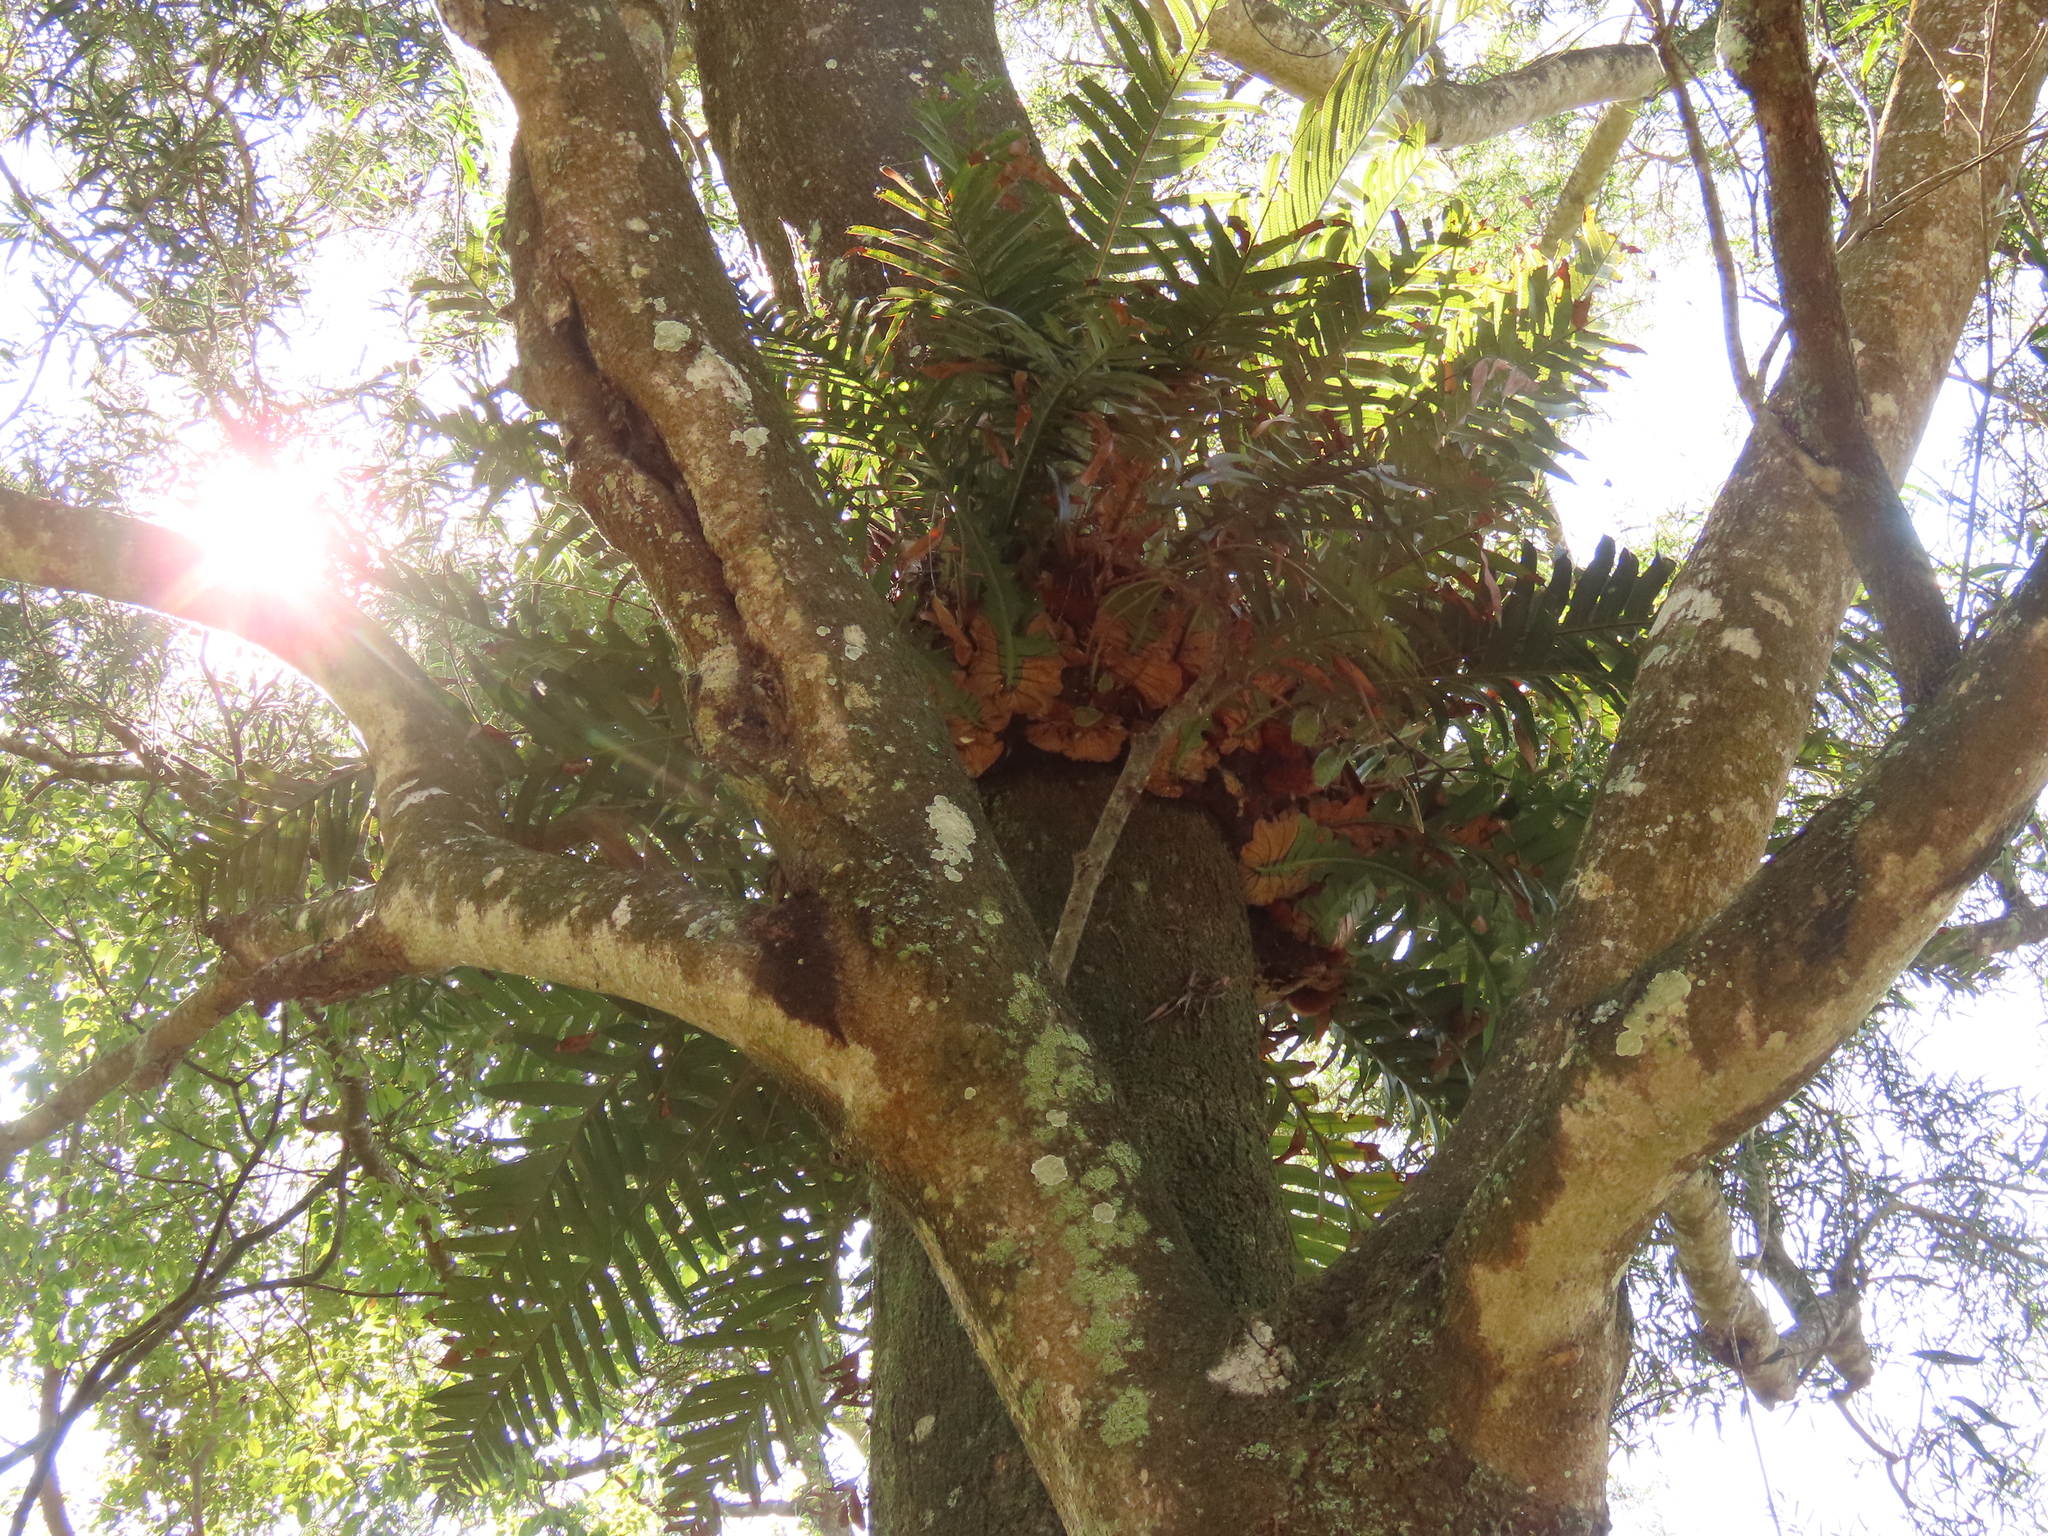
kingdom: Plantae
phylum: Tracheophyta
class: Polypodiopsida
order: Polypodiales
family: Polypodiaceae
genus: Drynaria
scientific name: Drynaria coronans
